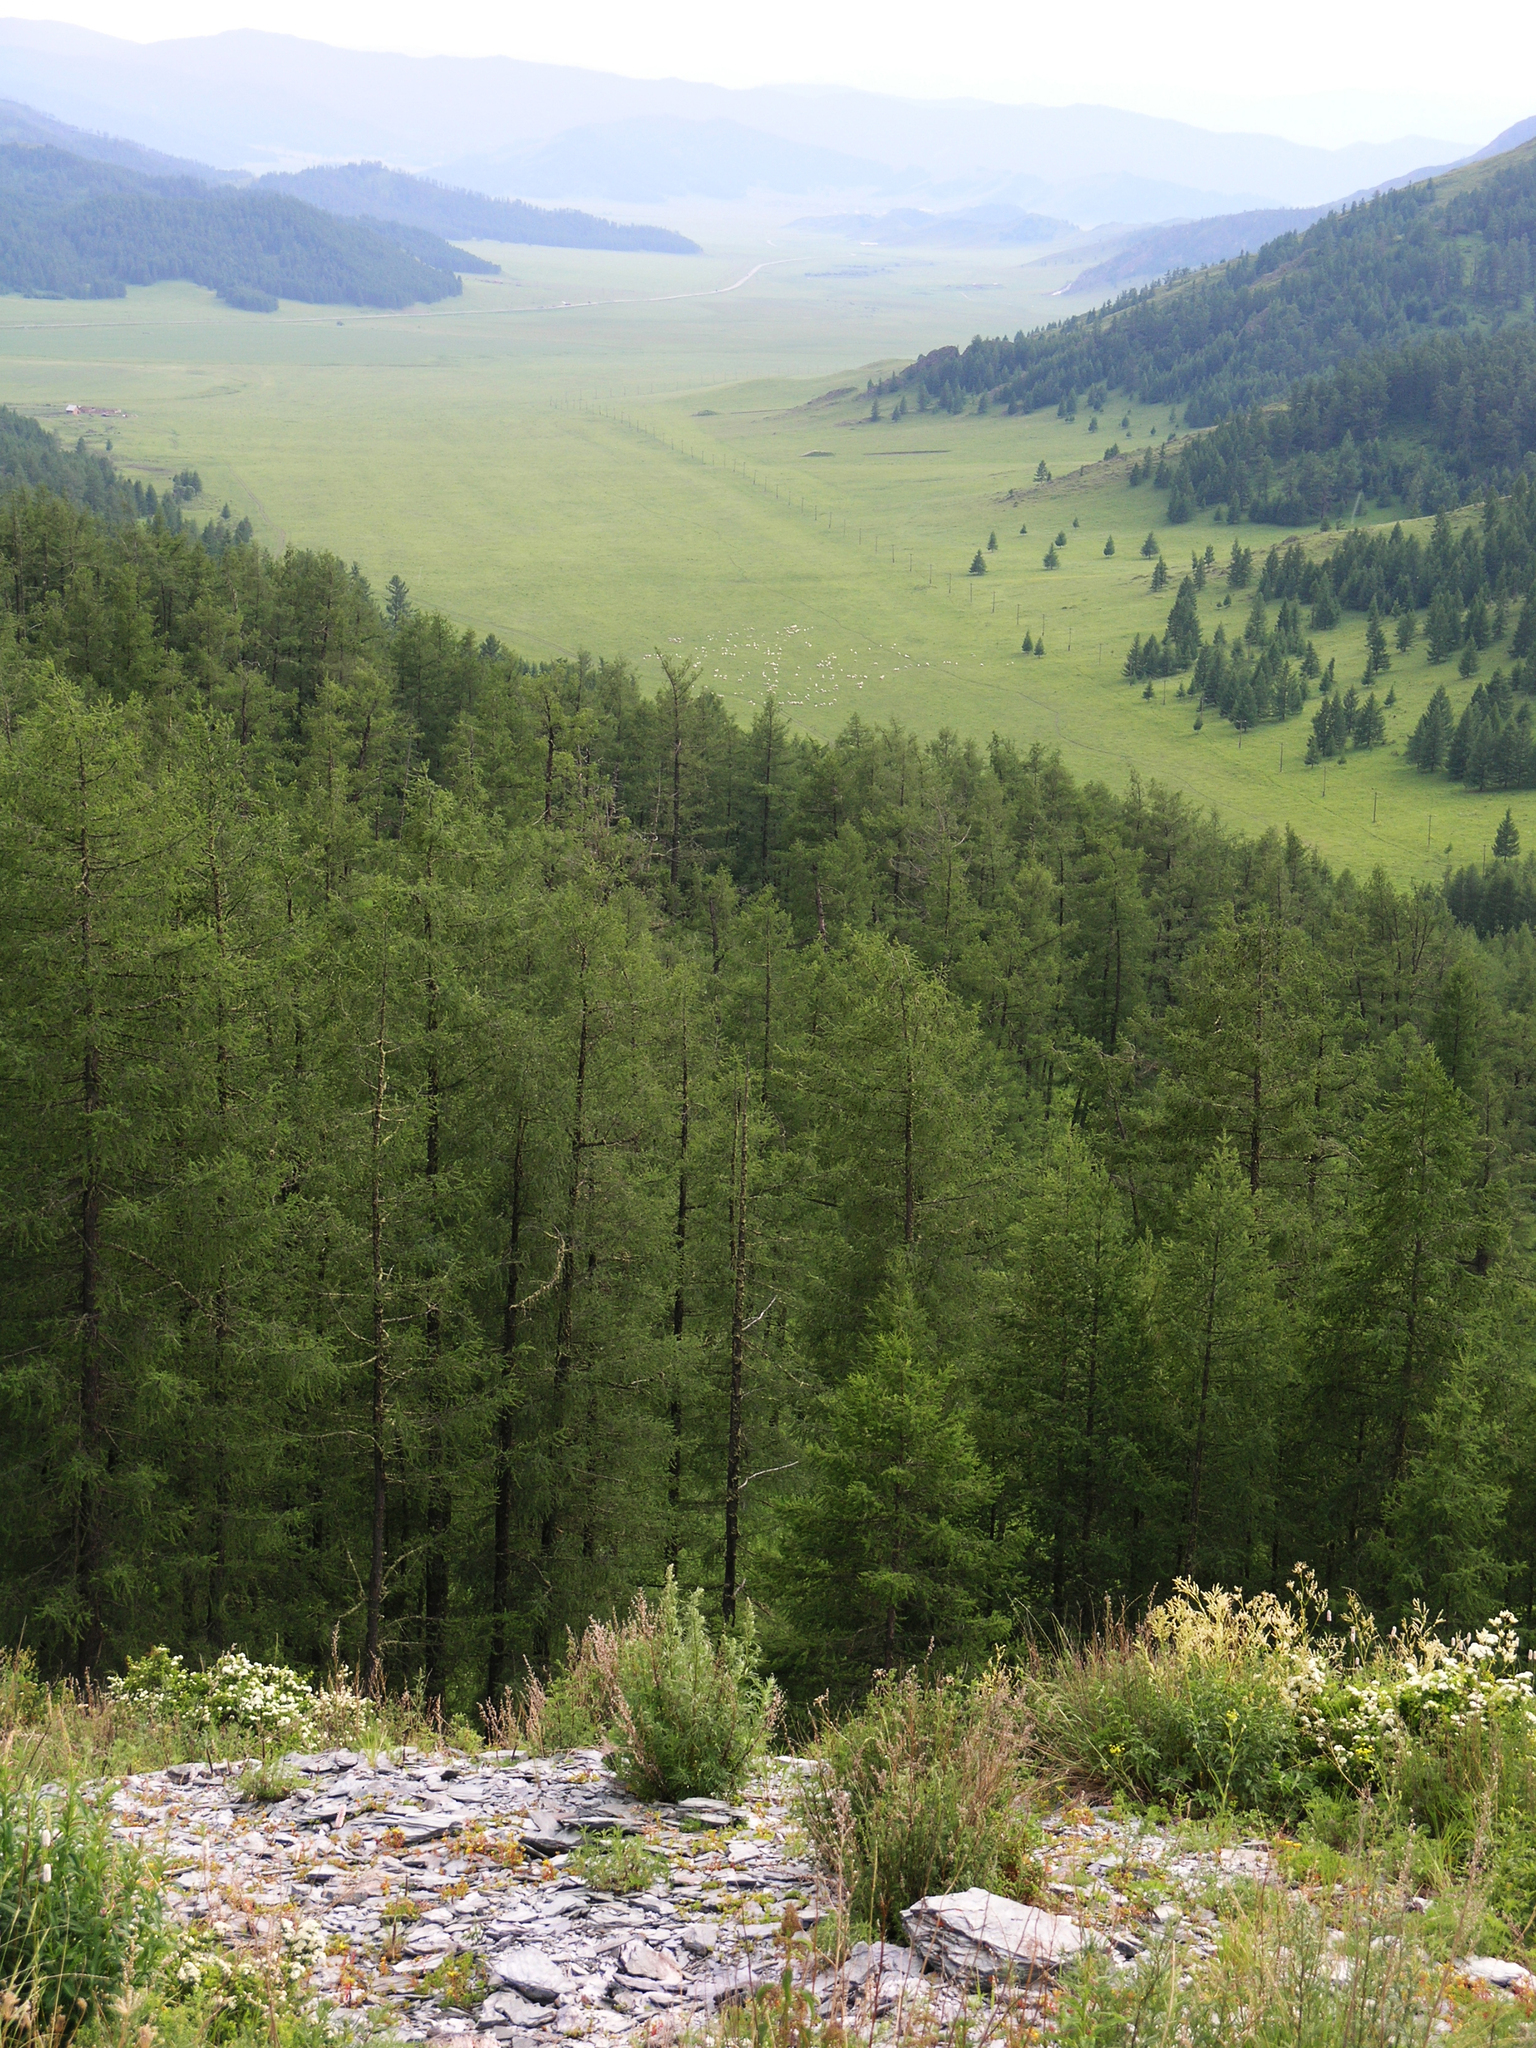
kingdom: Plantae
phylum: Tracheophyta
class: Pinopsida
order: Pinales
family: Pinaceae
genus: Larix
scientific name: Larix sibirica
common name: Siberian larch
